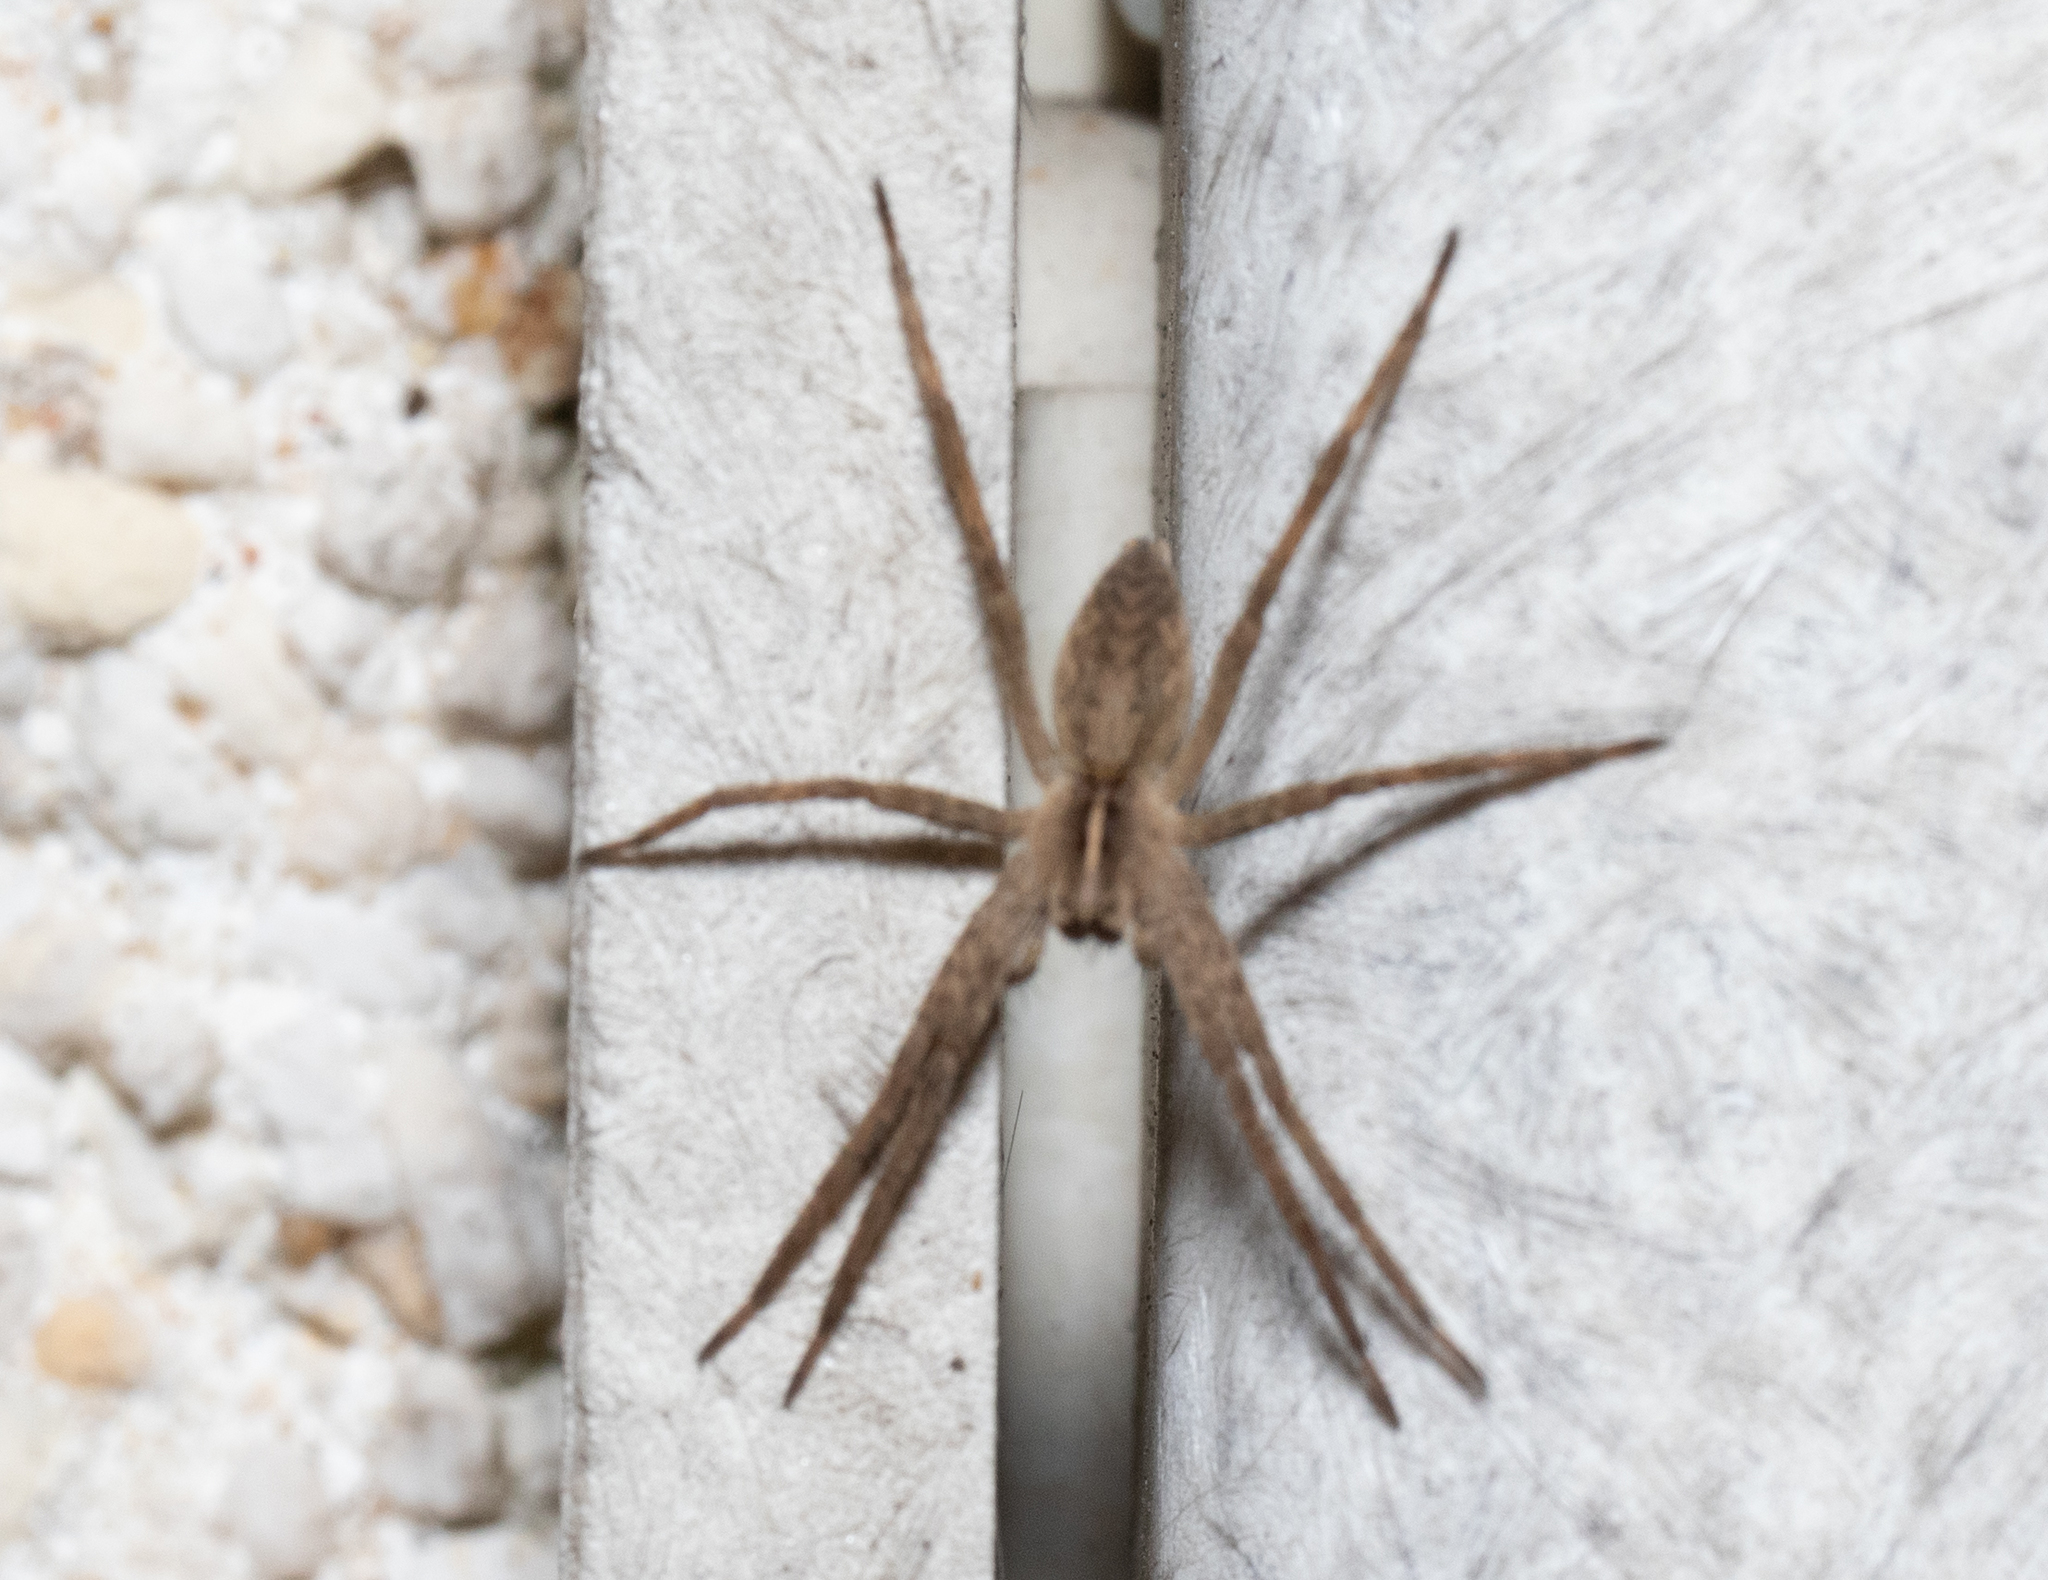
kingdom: Animalia
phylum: Arthropoda
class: Arachnida
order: Araneae
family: Pisauridae
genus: Pisaura
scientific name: Pisaura mirabilis
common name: Tent spider
